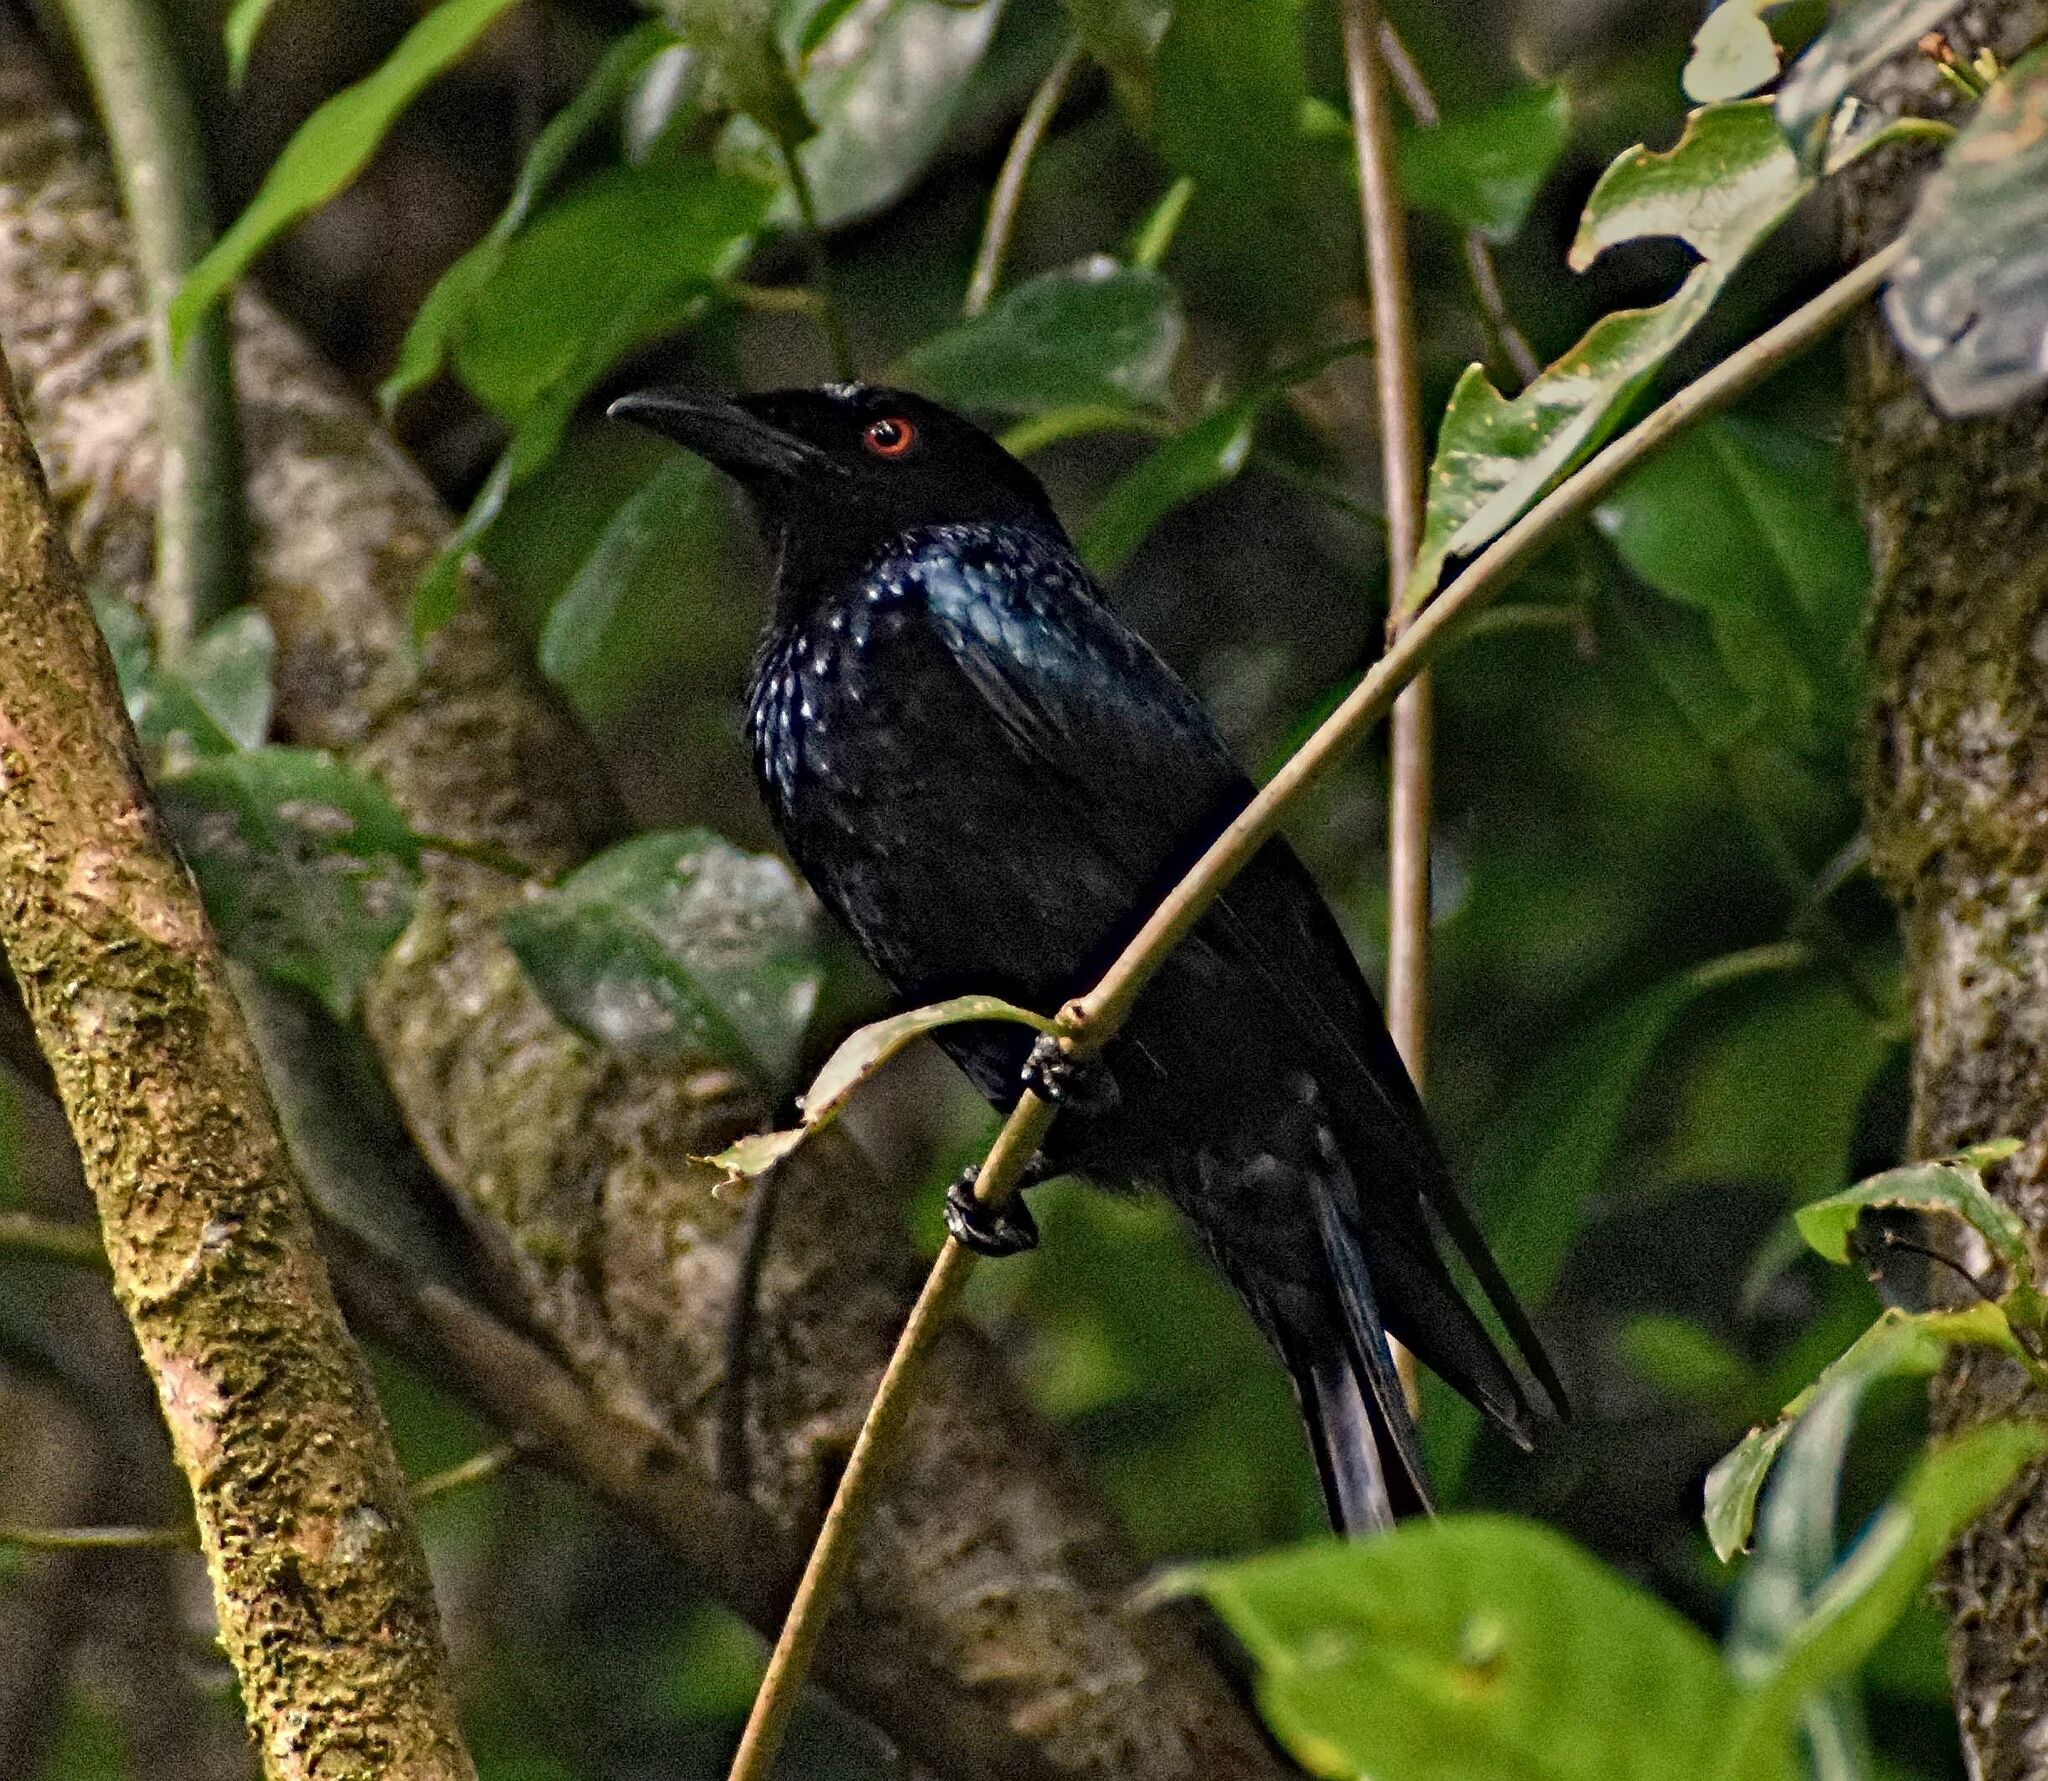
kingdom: Animalia
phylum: Chordata
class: Aves
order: Passeriformes
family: Dicruridae
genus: Dicrurus
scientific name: Dicrurus bracteatus
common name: Spangled drongo
